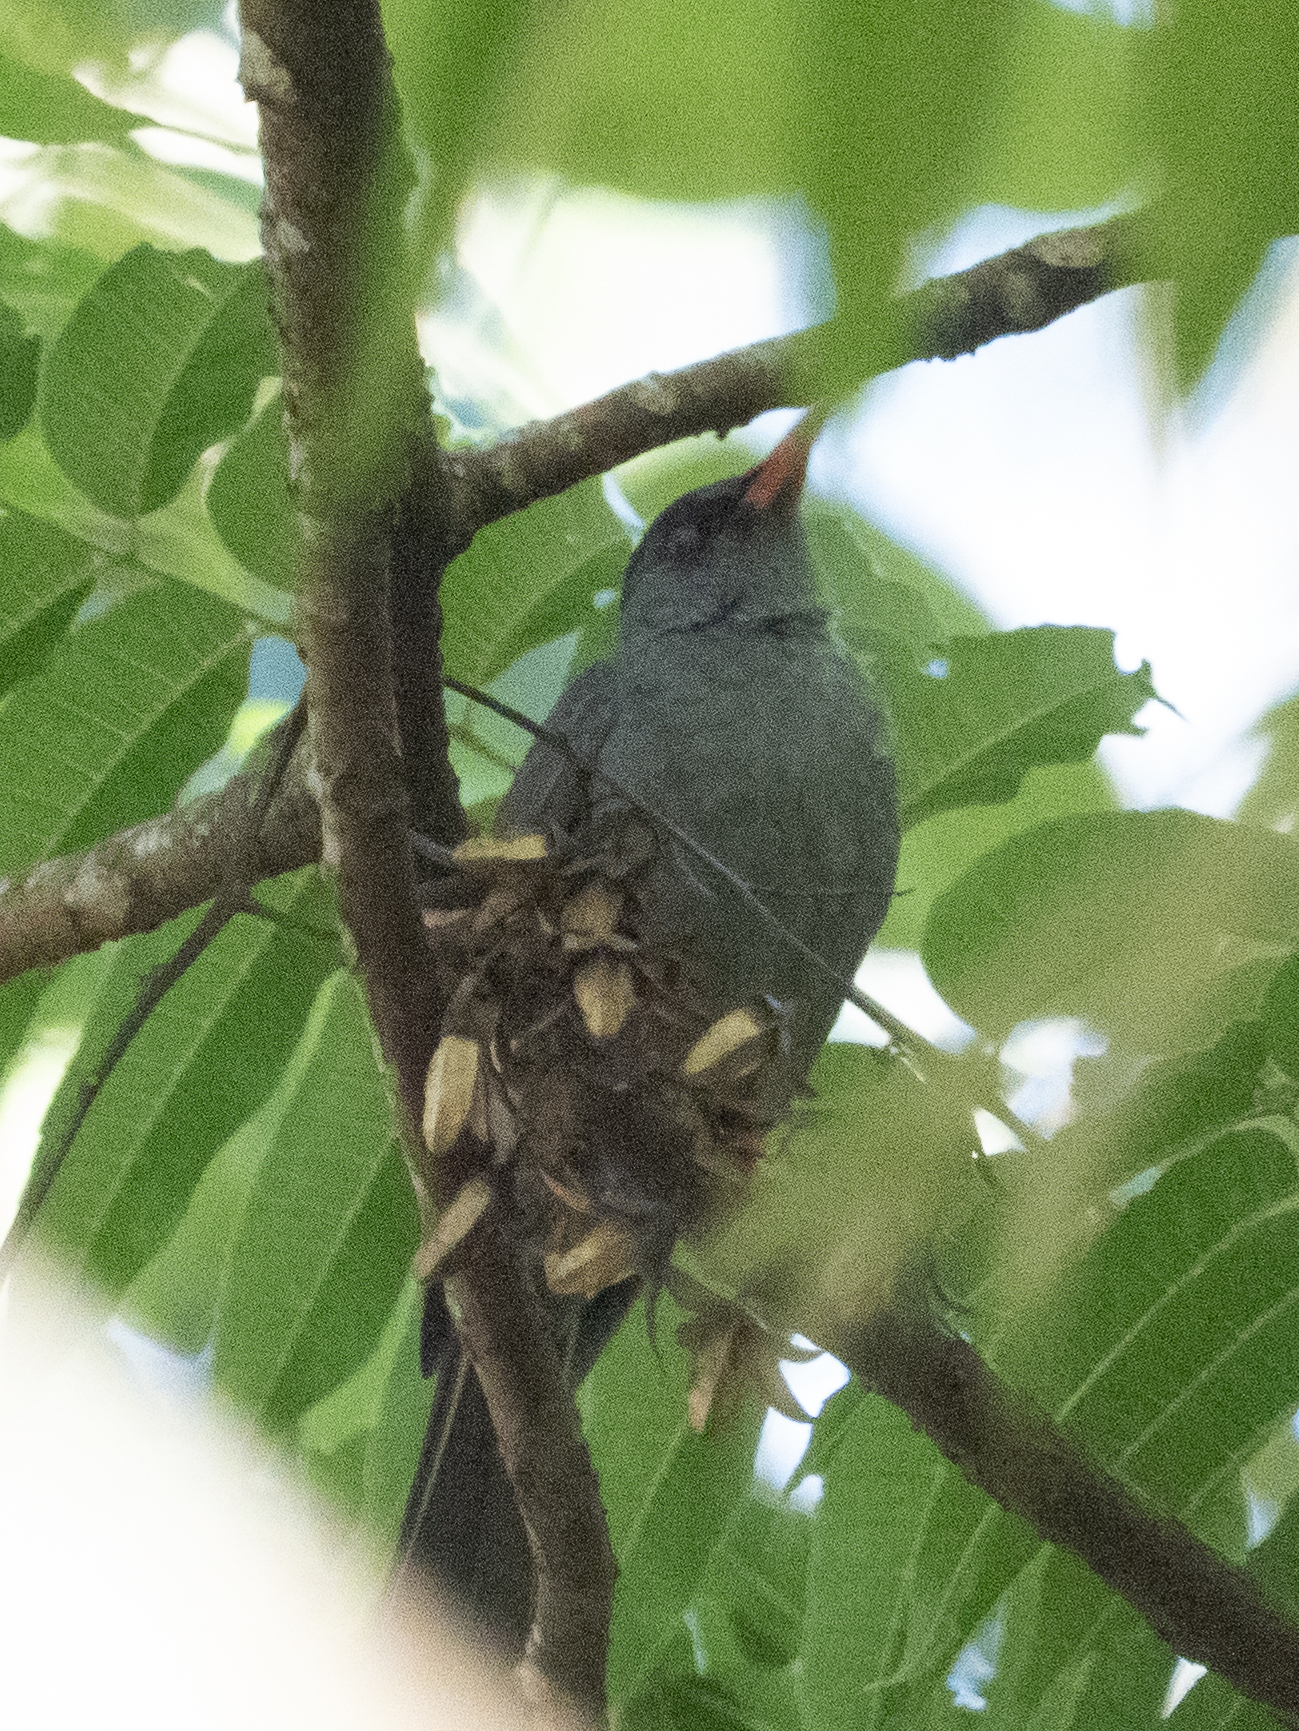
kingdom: Animalia
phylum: Chordata
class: Aves
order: Passeriformes
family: Pycnonotidae
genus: Hypsipetes
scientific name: Hypsipetes ganeesa
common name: Square-tailed bulbul
